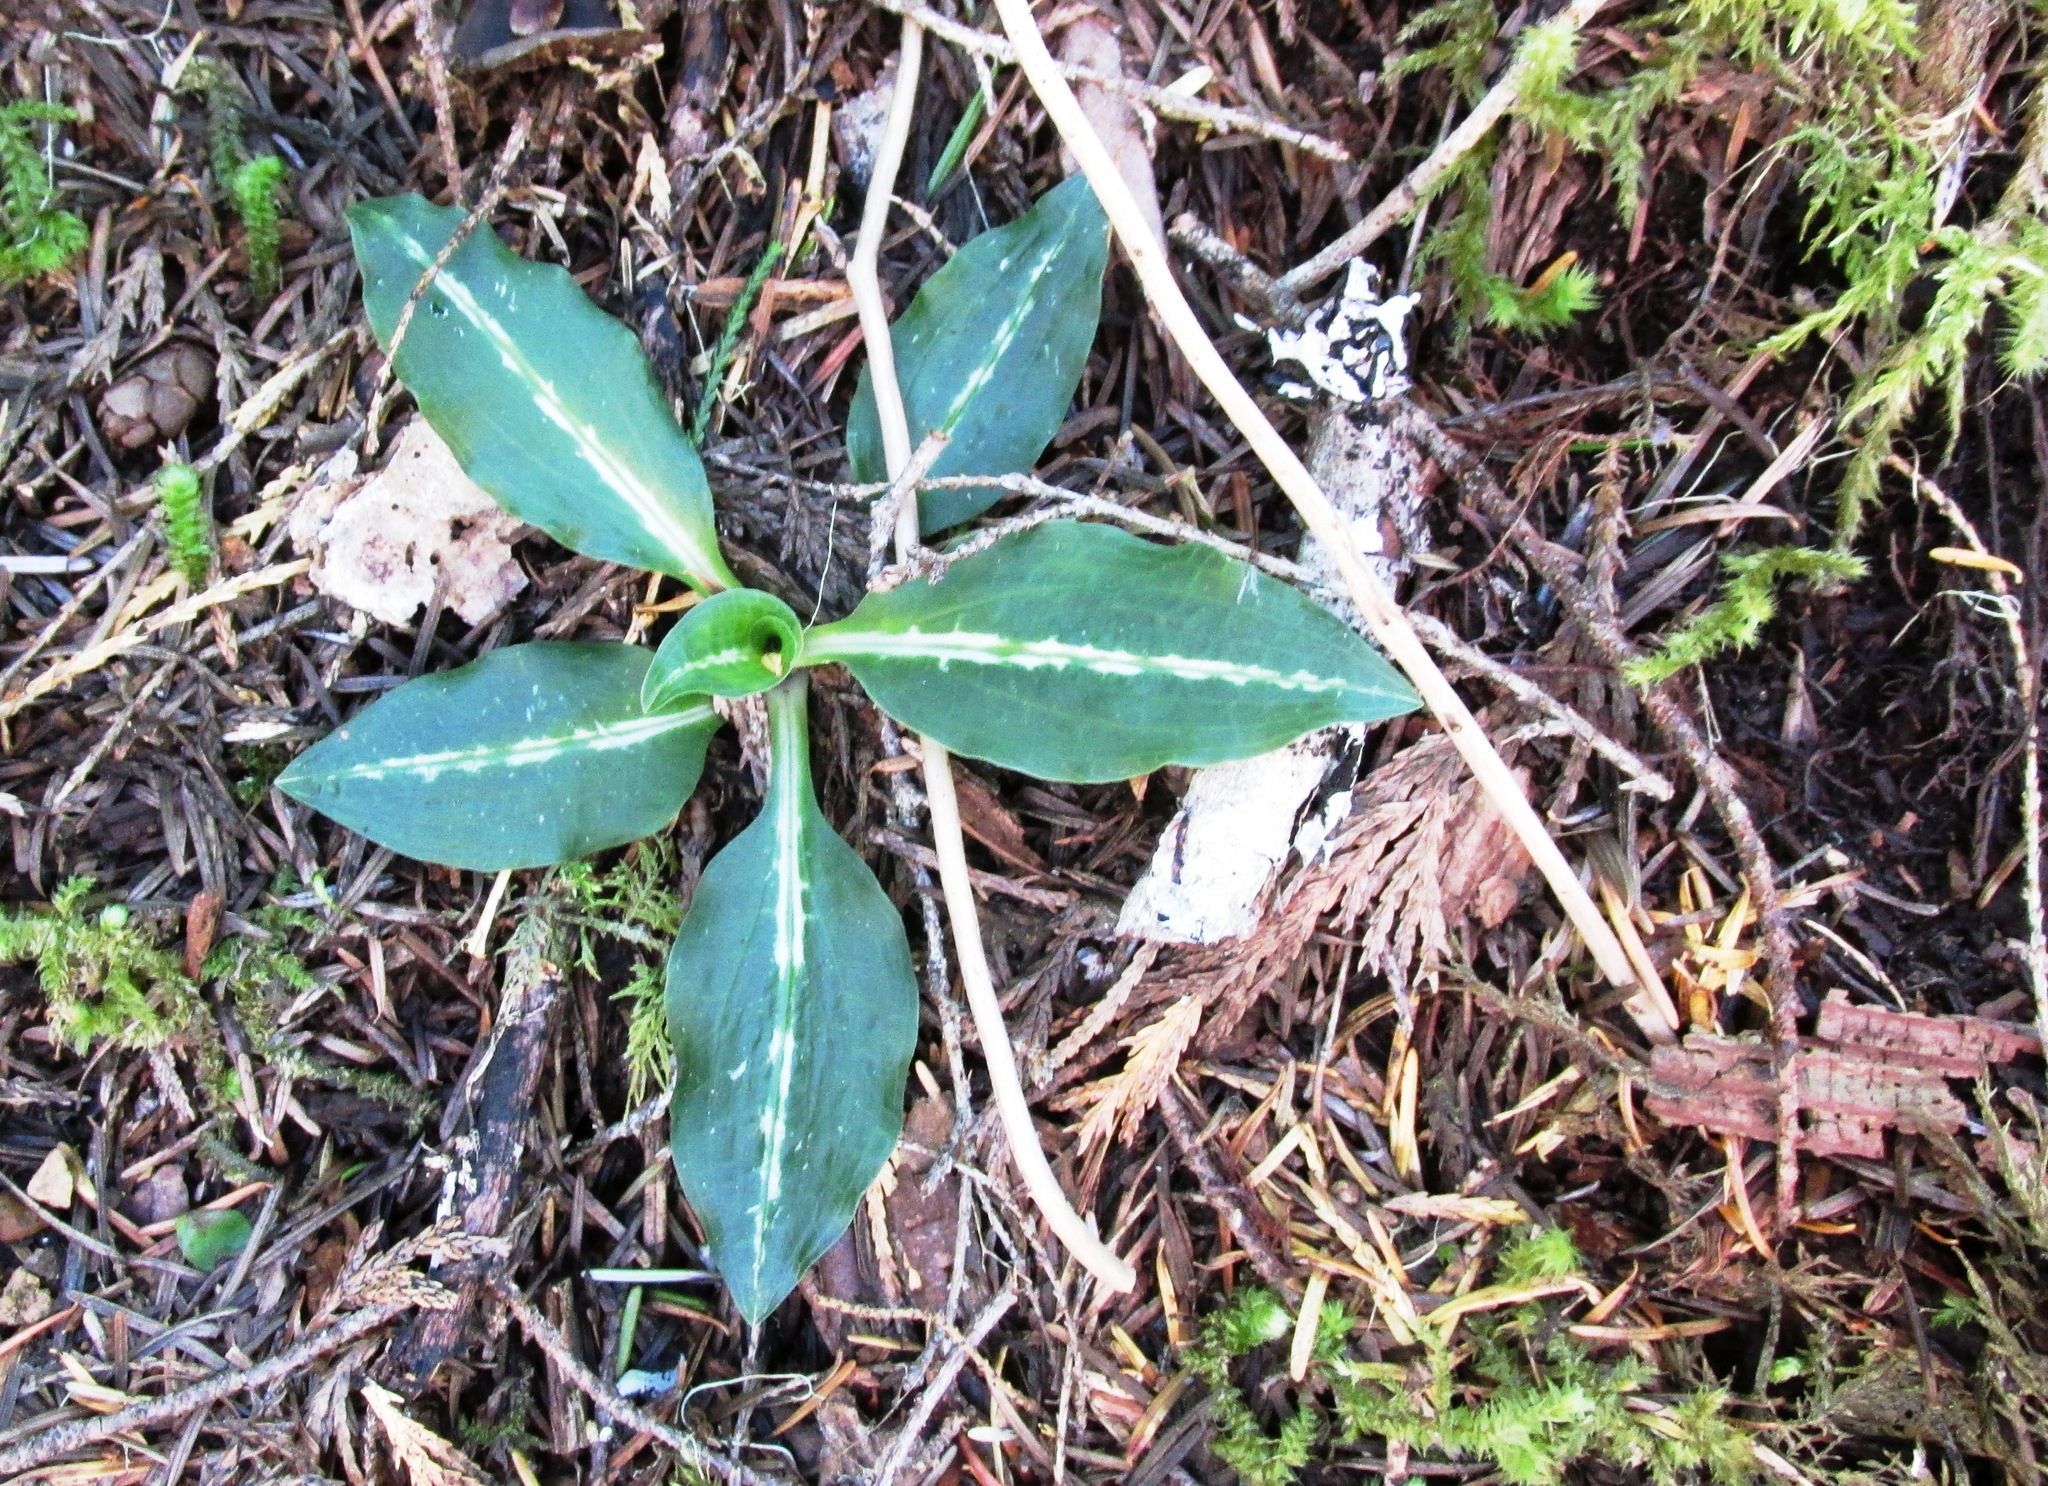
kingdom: Plantae
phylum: Tracheophyta
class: Liliopsida
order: Asparagales
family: Orchidaceae
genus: Goodyera
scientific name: Goodyera oblongifolia
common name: Giant rattlesnake-plantain
